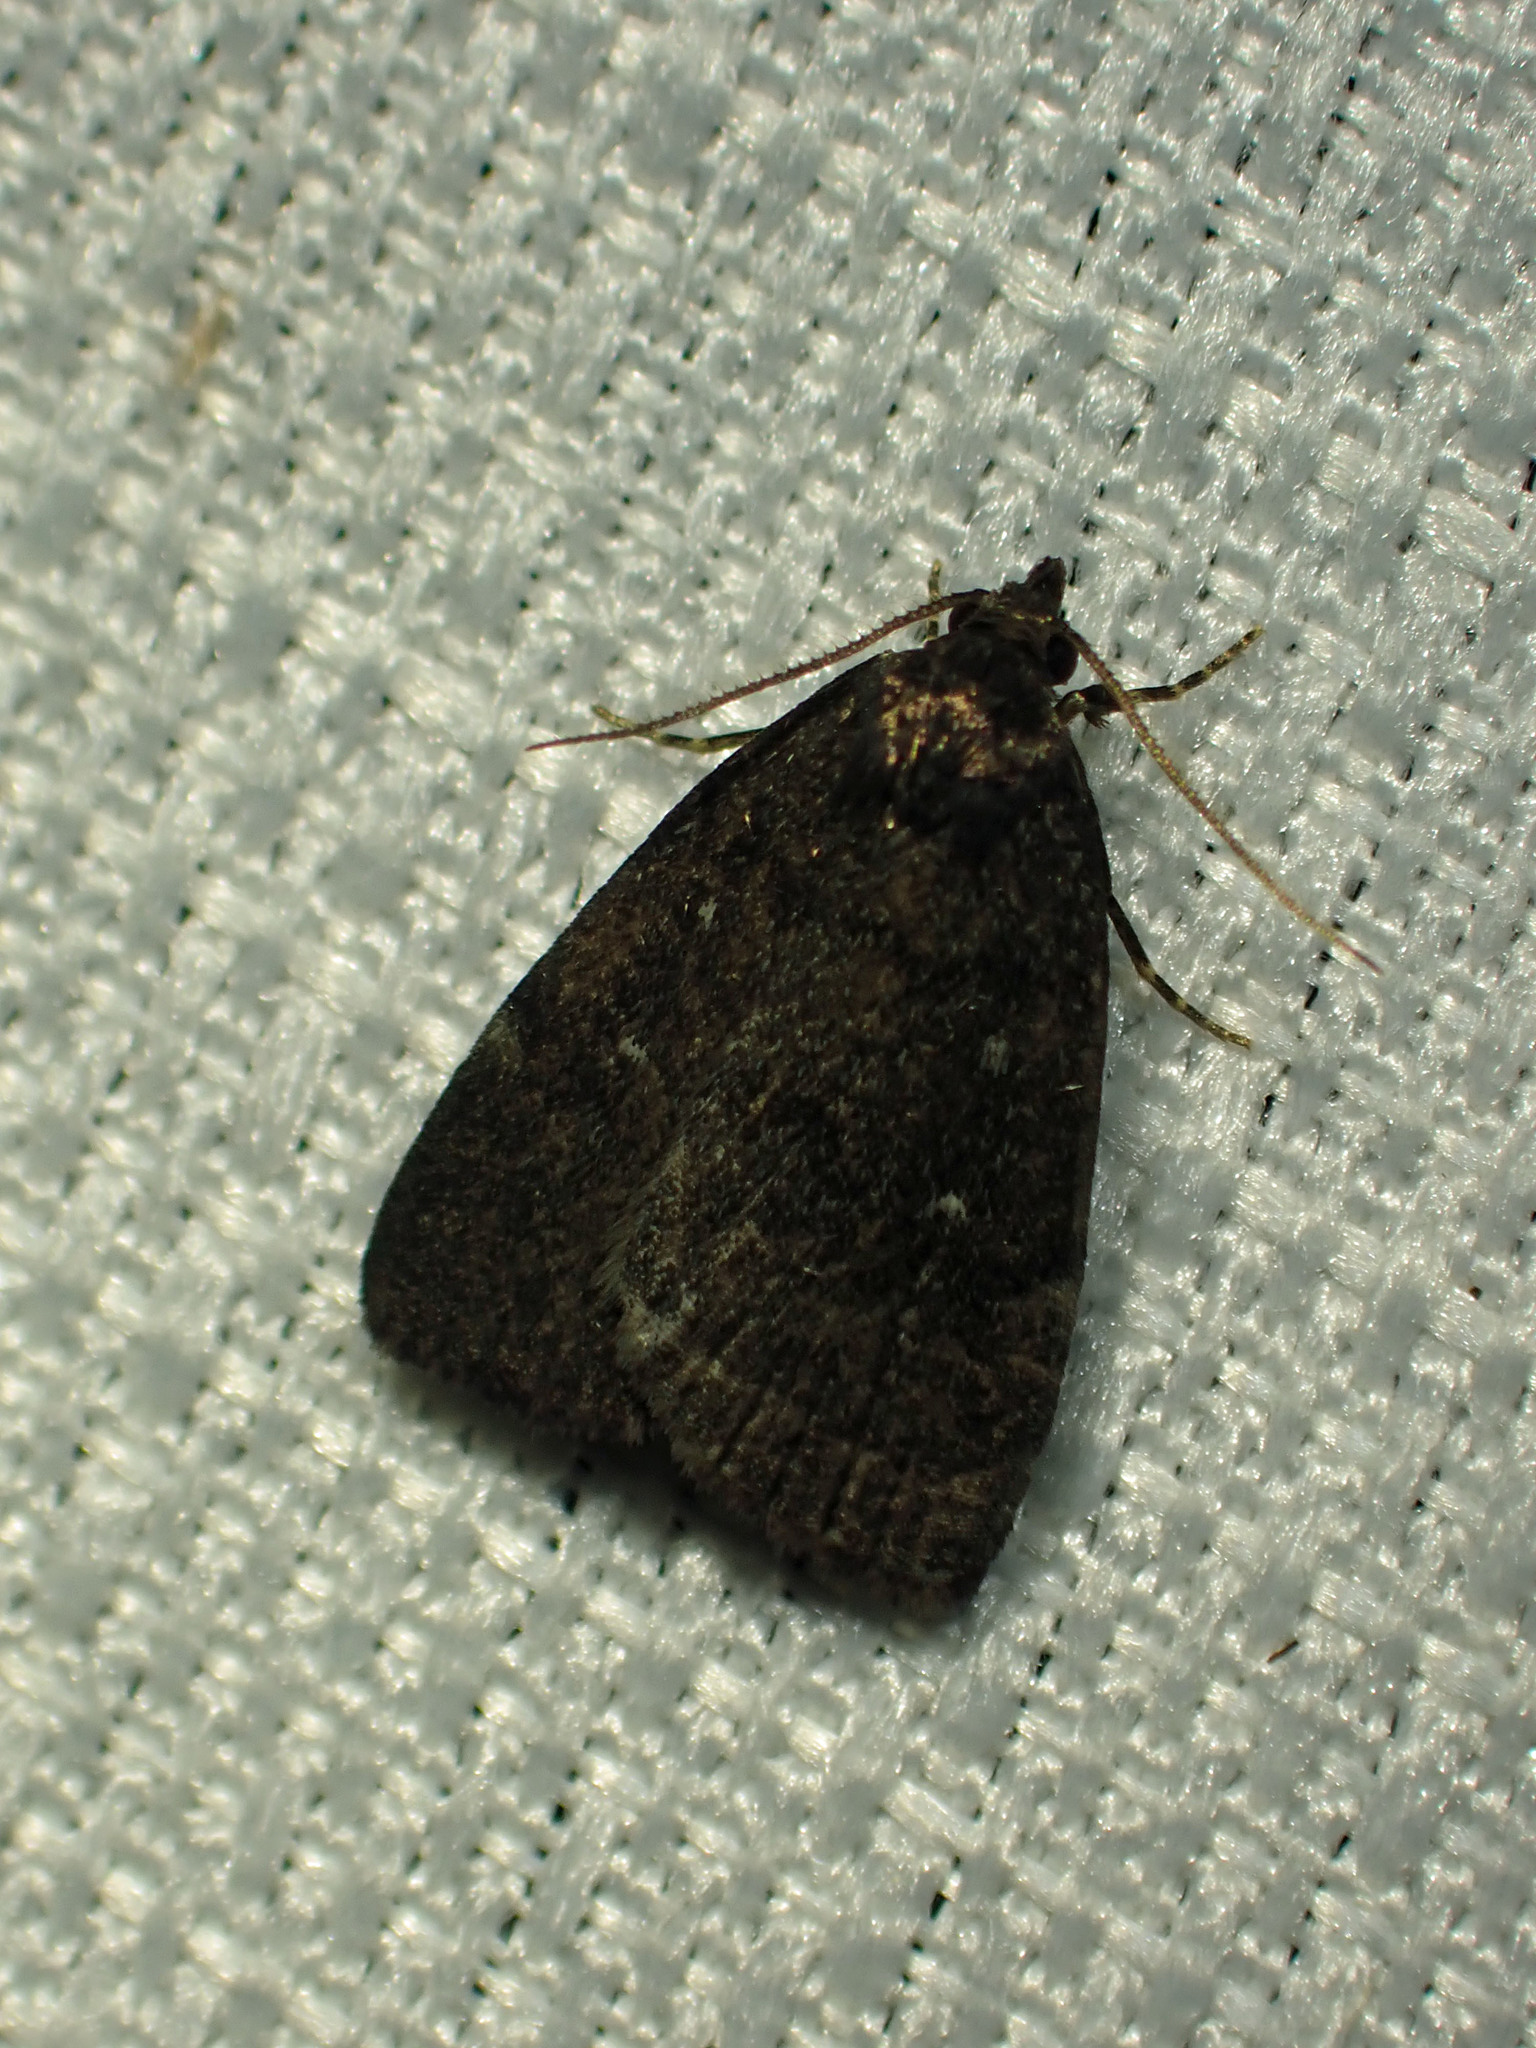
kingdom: Animalia
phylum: Arthropoda
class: Insecta
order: Lepidoptera
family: Erebidae
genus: Idia
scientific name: Idia rotundalis
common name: Rotund idia moth
